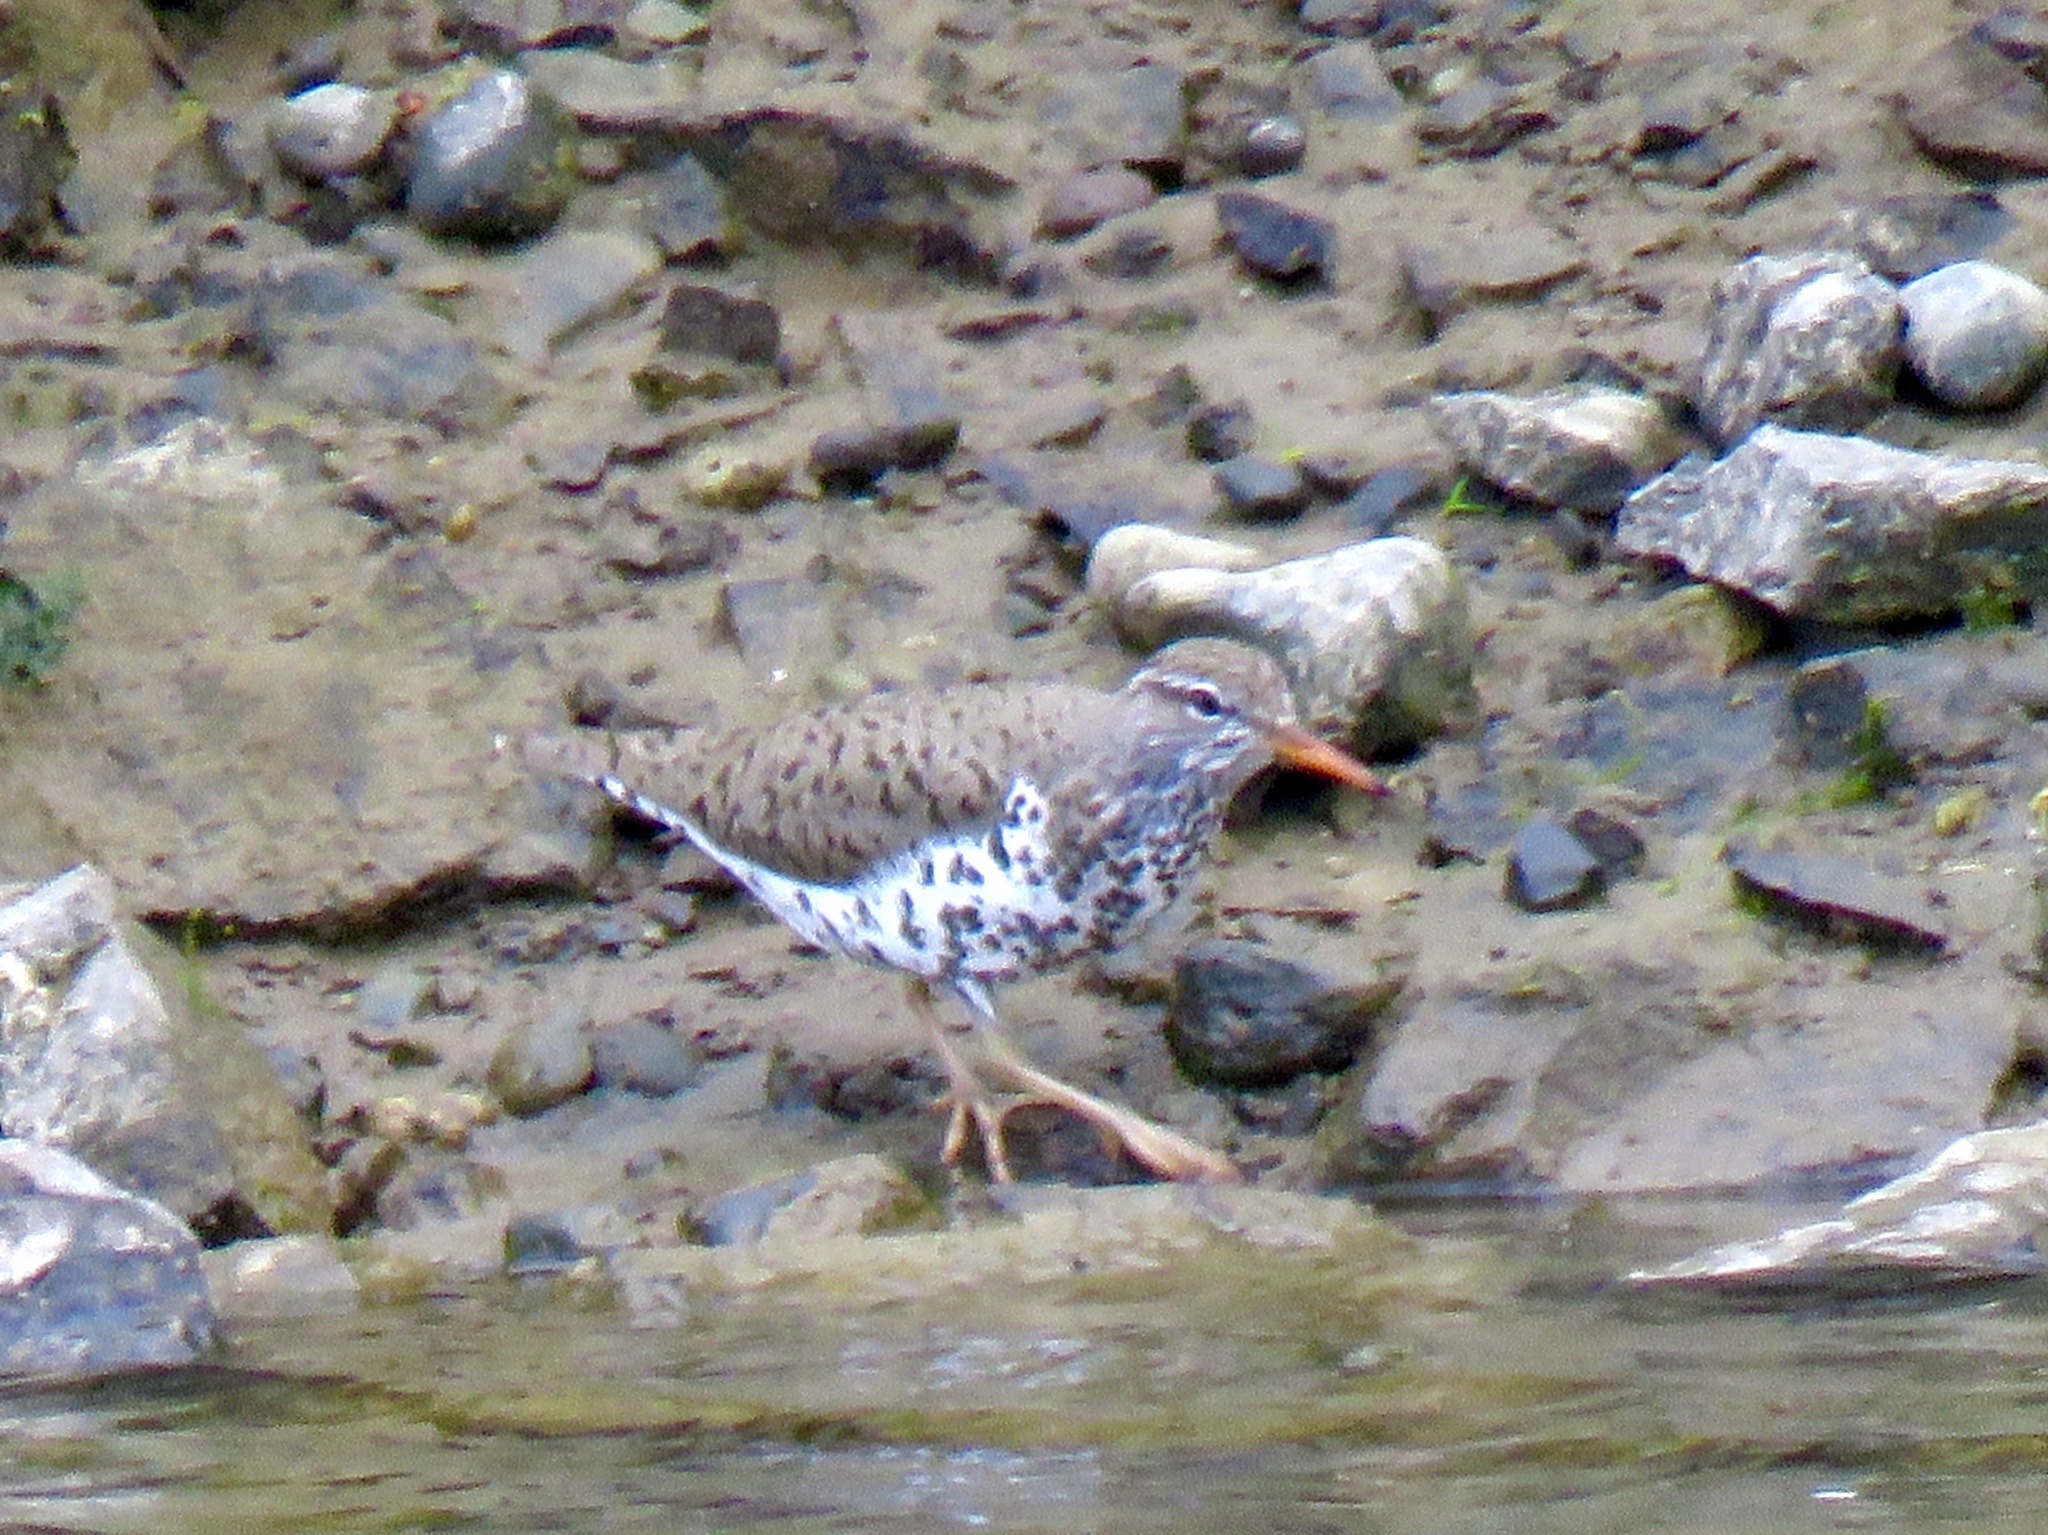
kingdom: Animalia
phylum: Chordata
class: Aves
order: Charadriiformes
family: Scolopacidae
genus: Actitis
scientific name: Actitis macularius
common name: Spotted sandpiper
